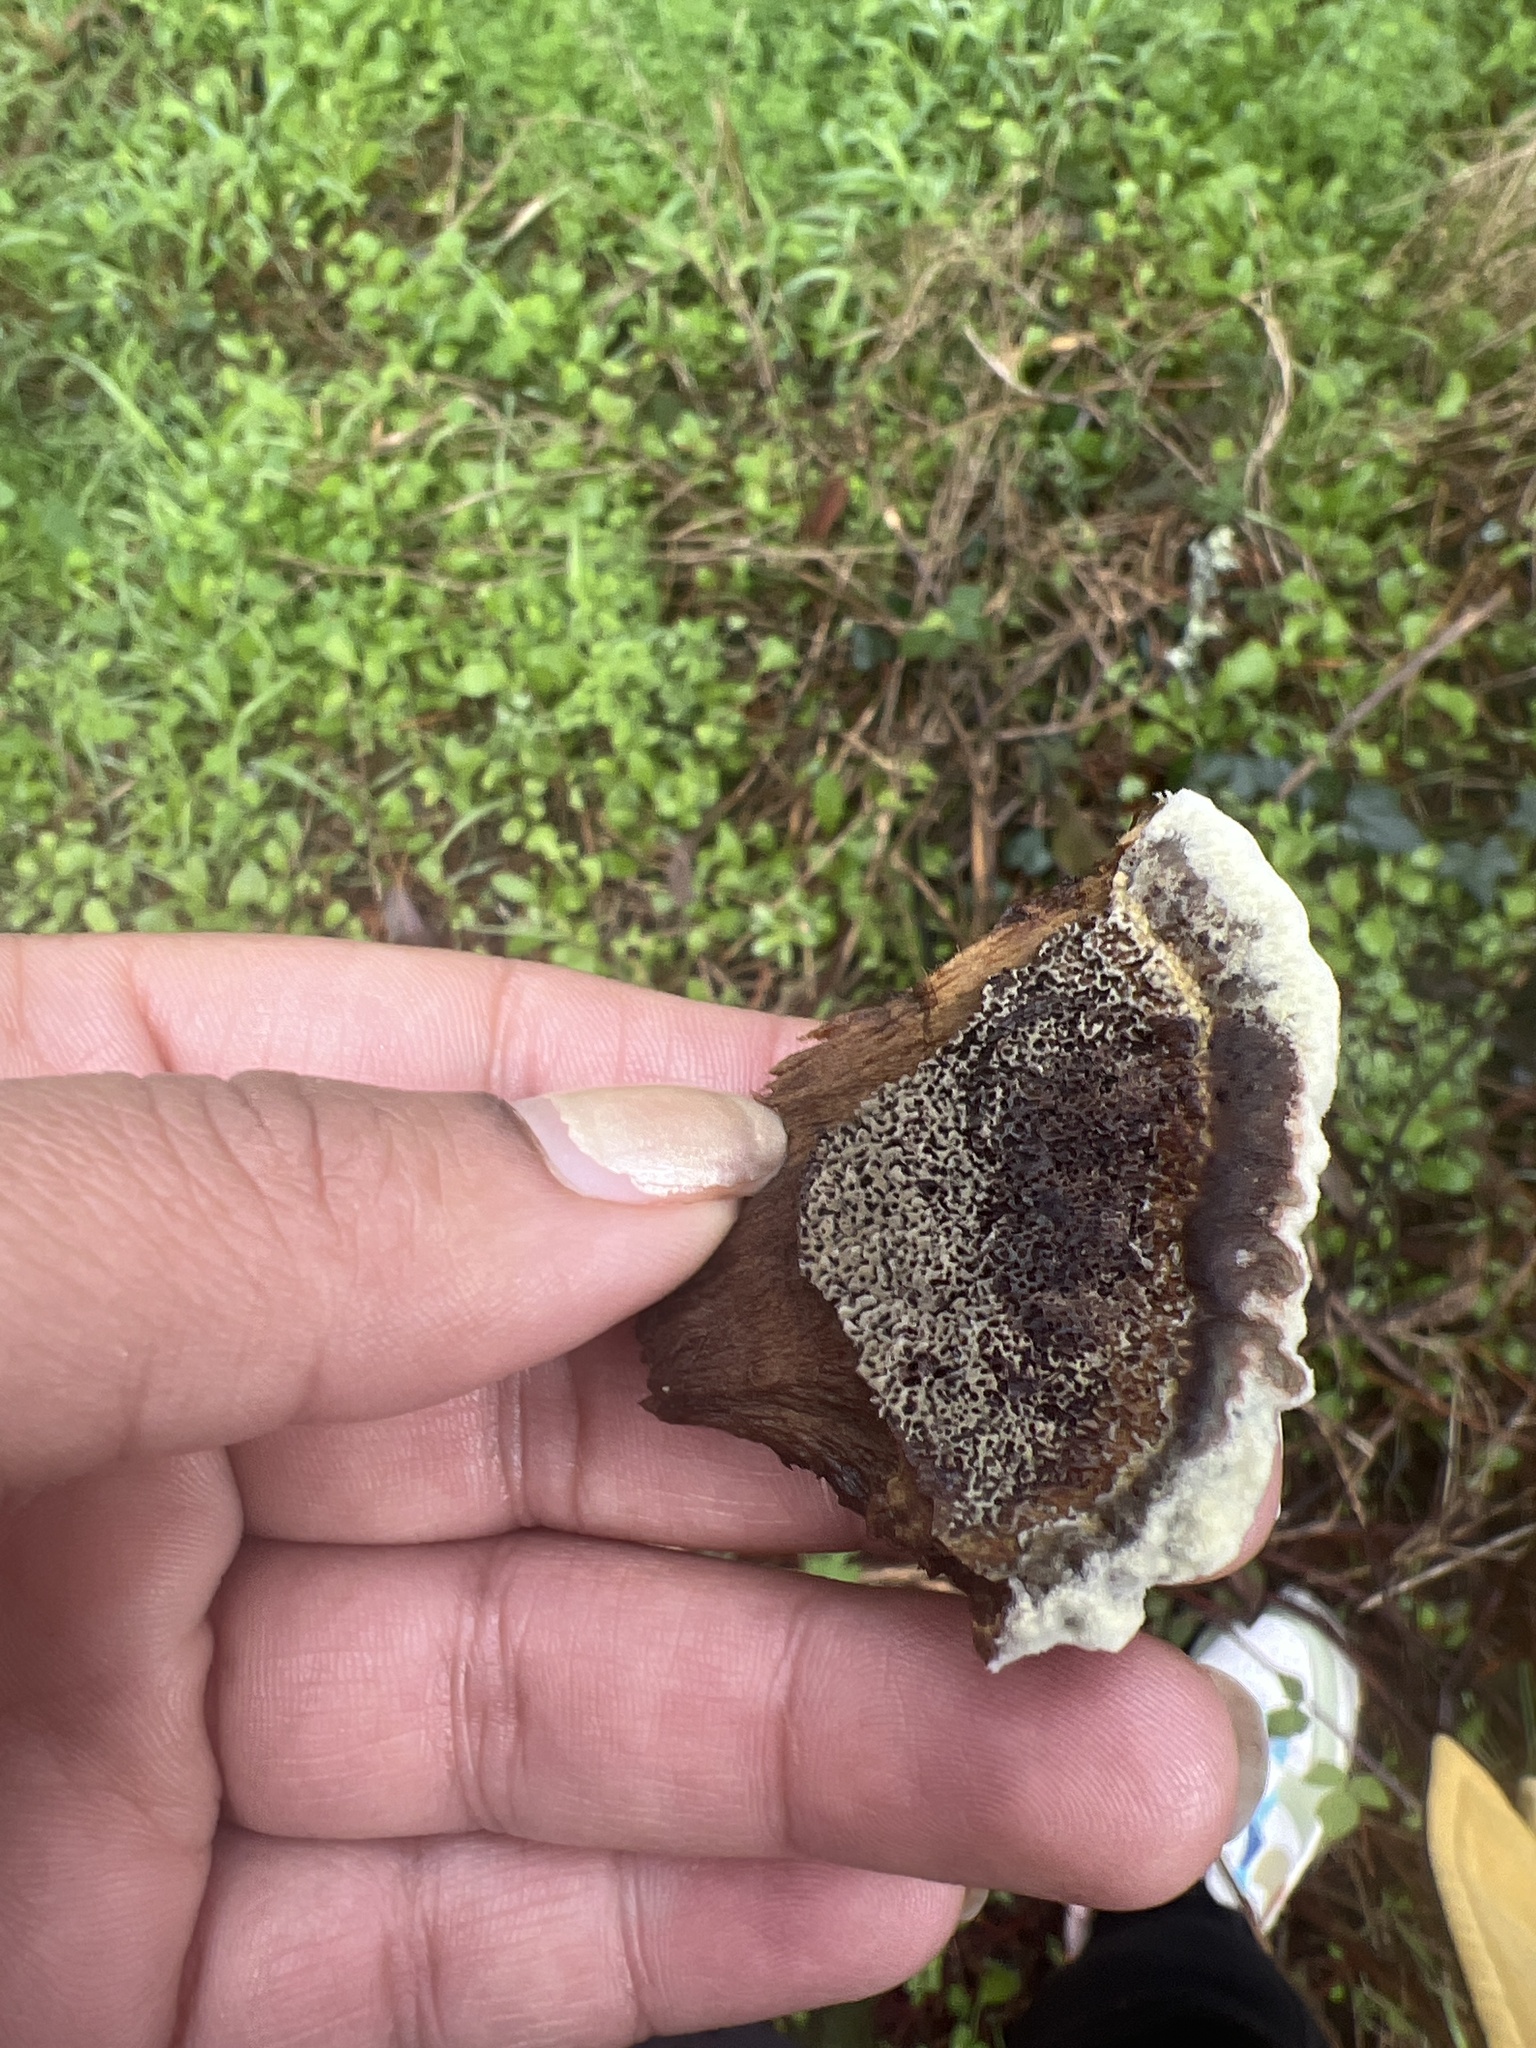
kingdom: Fungi
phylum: Basidiomycota
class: Agaricomycetes
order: Polyporales
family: Laetiporaceae
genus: Phaeolus
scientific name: Phaeolus schweinitzii
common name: Dyer's mazegill
